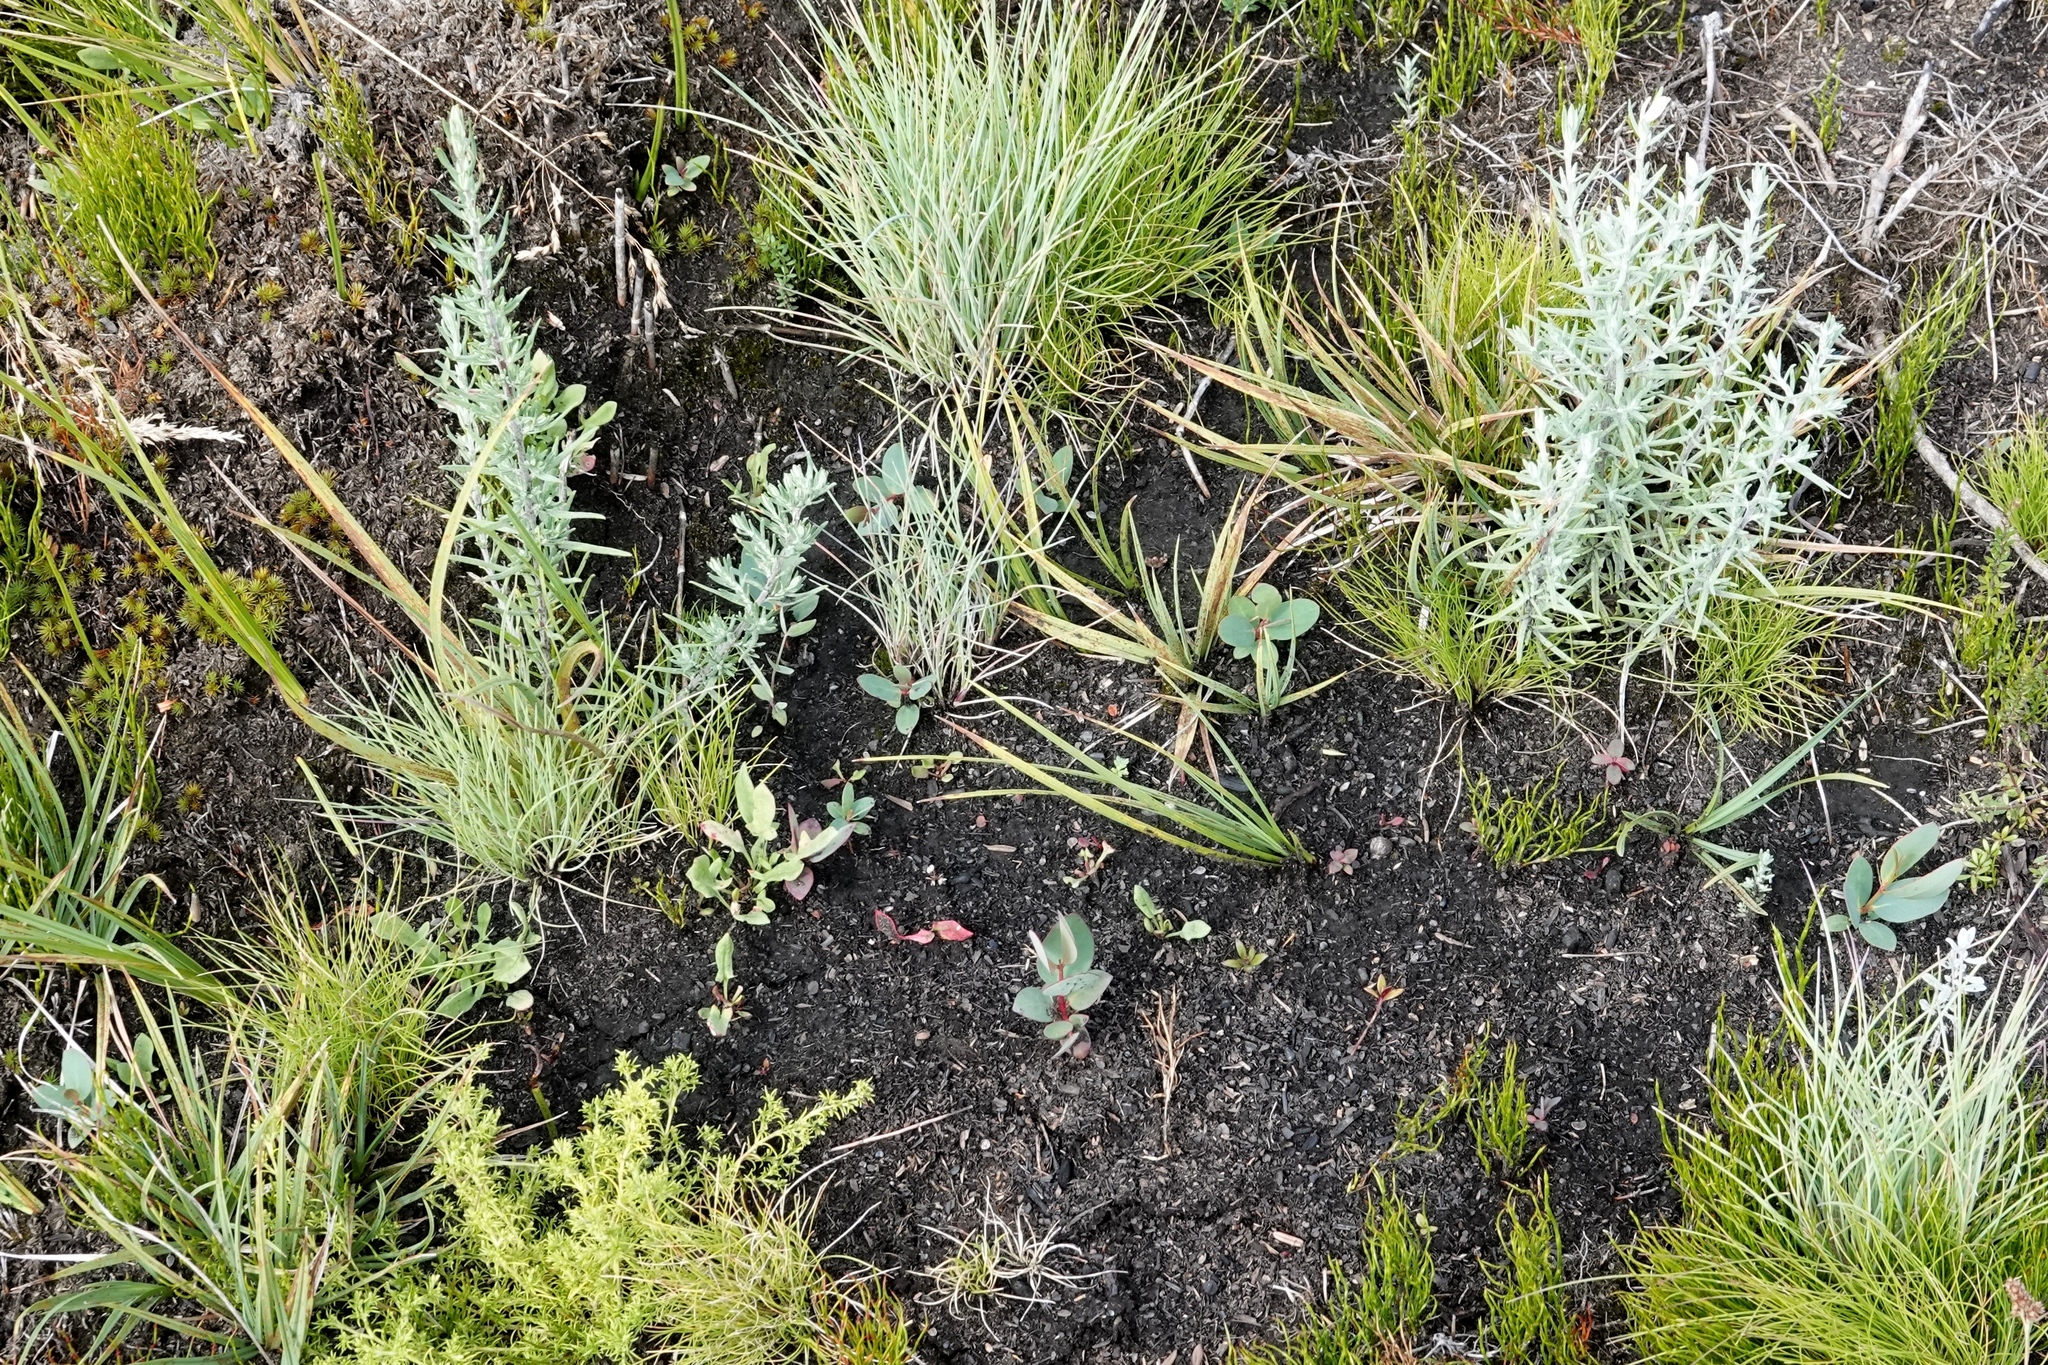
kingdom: Plantae
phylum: Tracheophyta
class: Magnoliopsida
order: Myrtales
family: Myrtaceae
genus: Eucalyptus
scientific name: Eucalyptus pauciflora
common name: Snow gum
